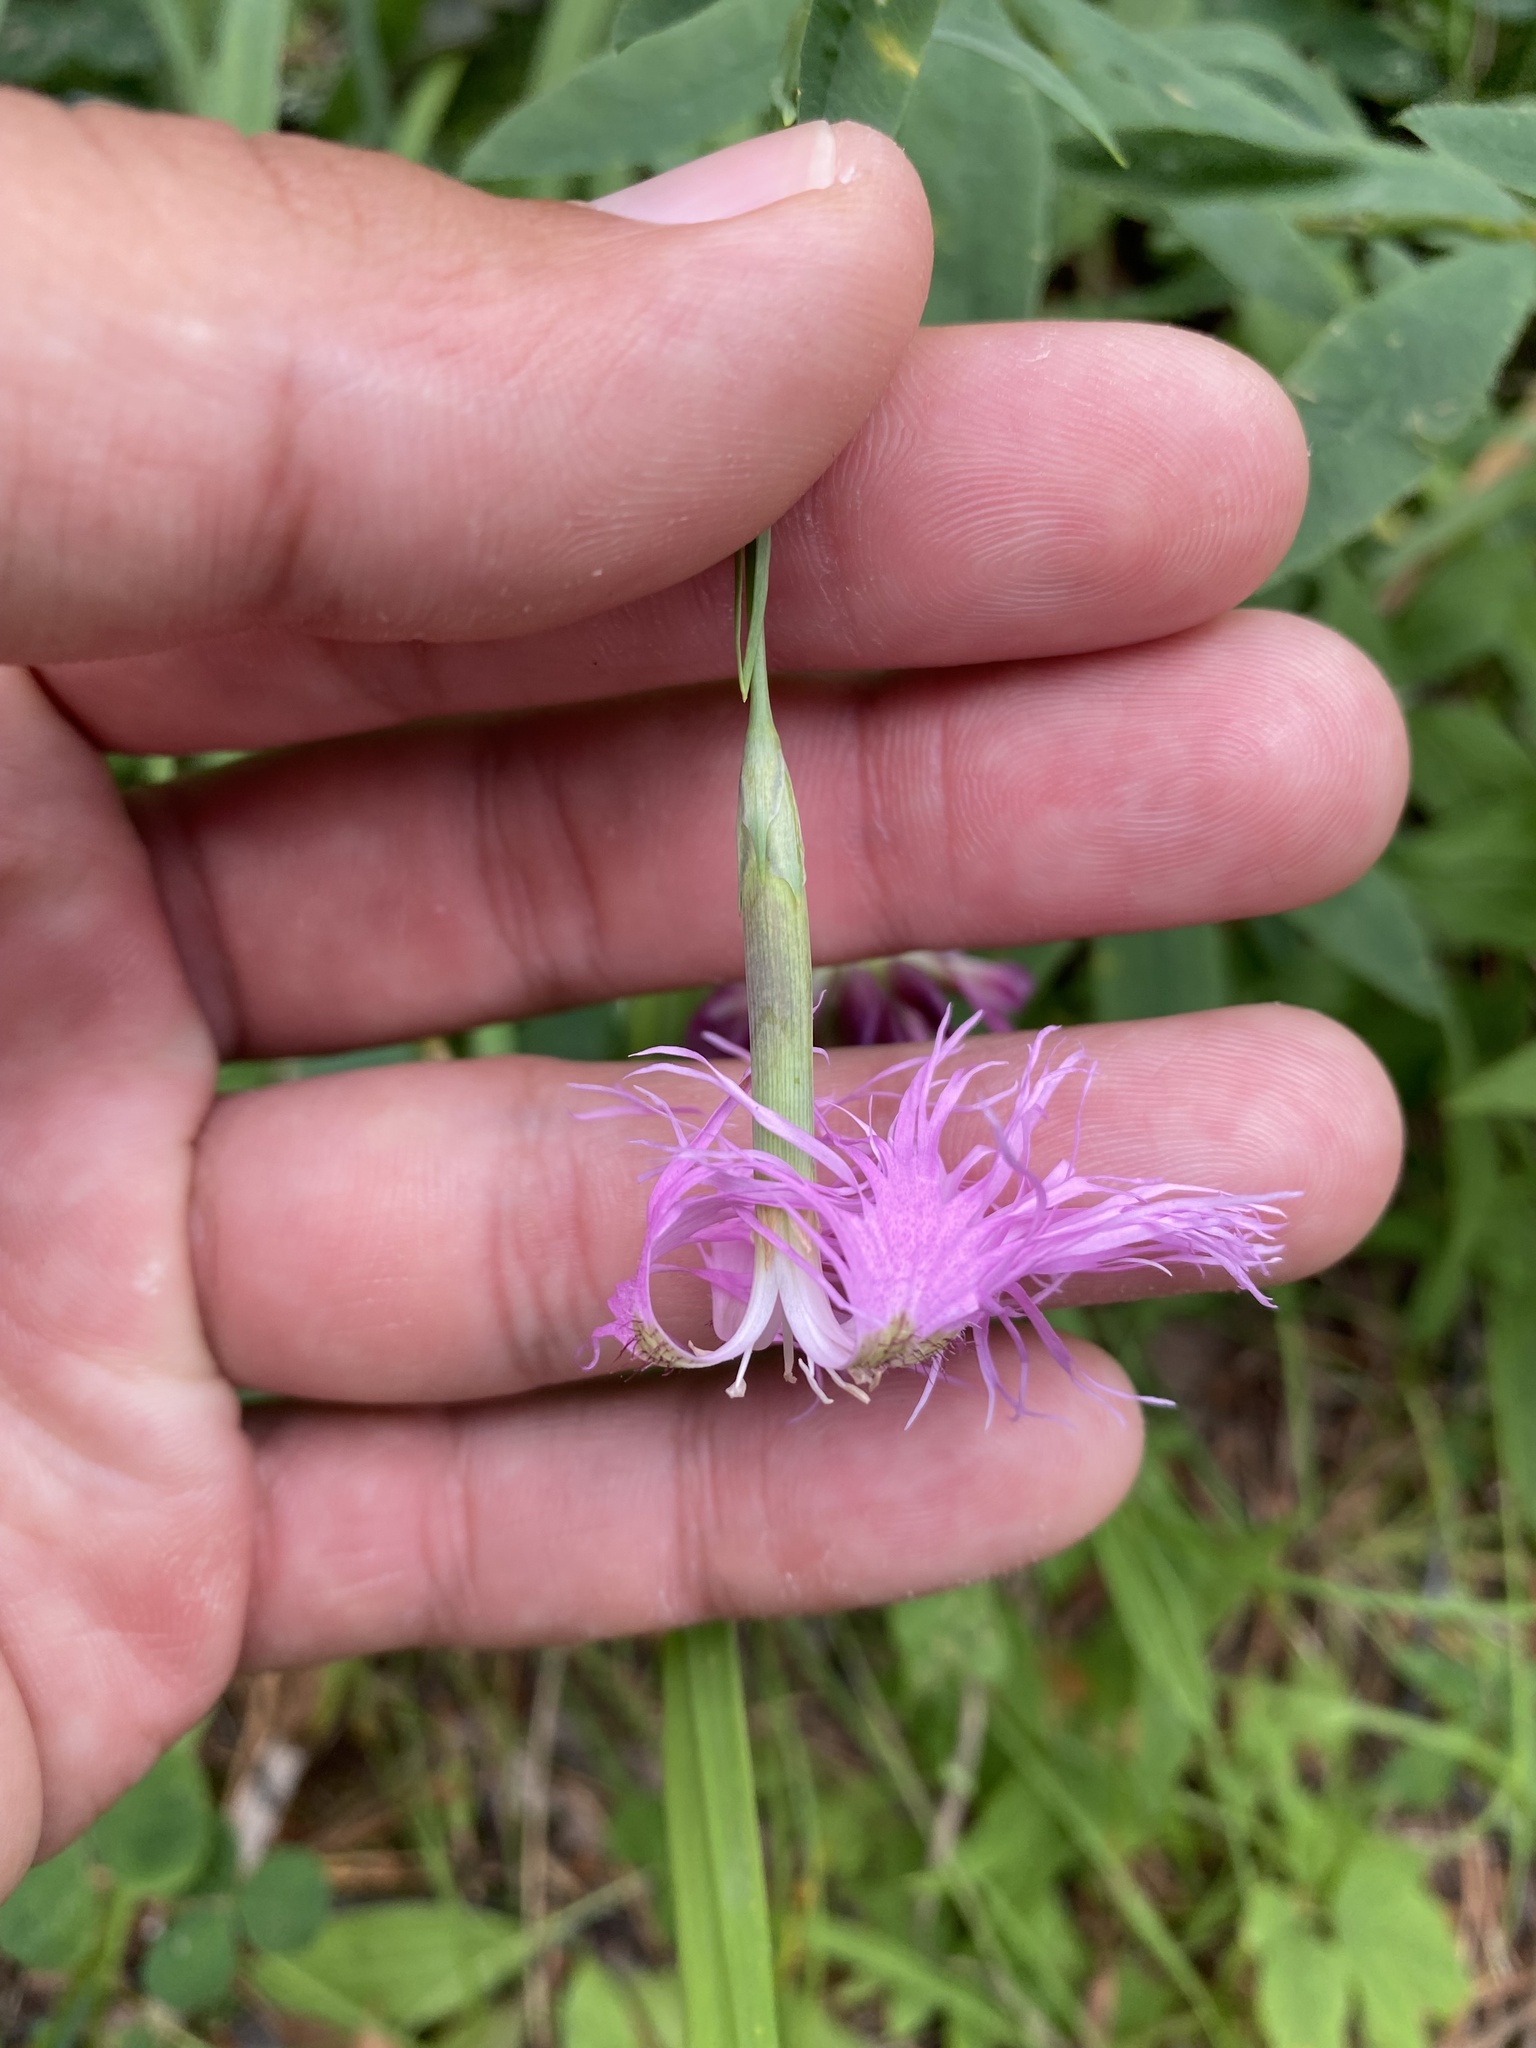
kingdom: Plantae
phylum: Tracheophyta
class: Magnoliopsida
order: Caryophyllales
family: Caryophyllaceae
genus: Dianthus
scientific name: Dianthus superbus
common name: Fringed pink
